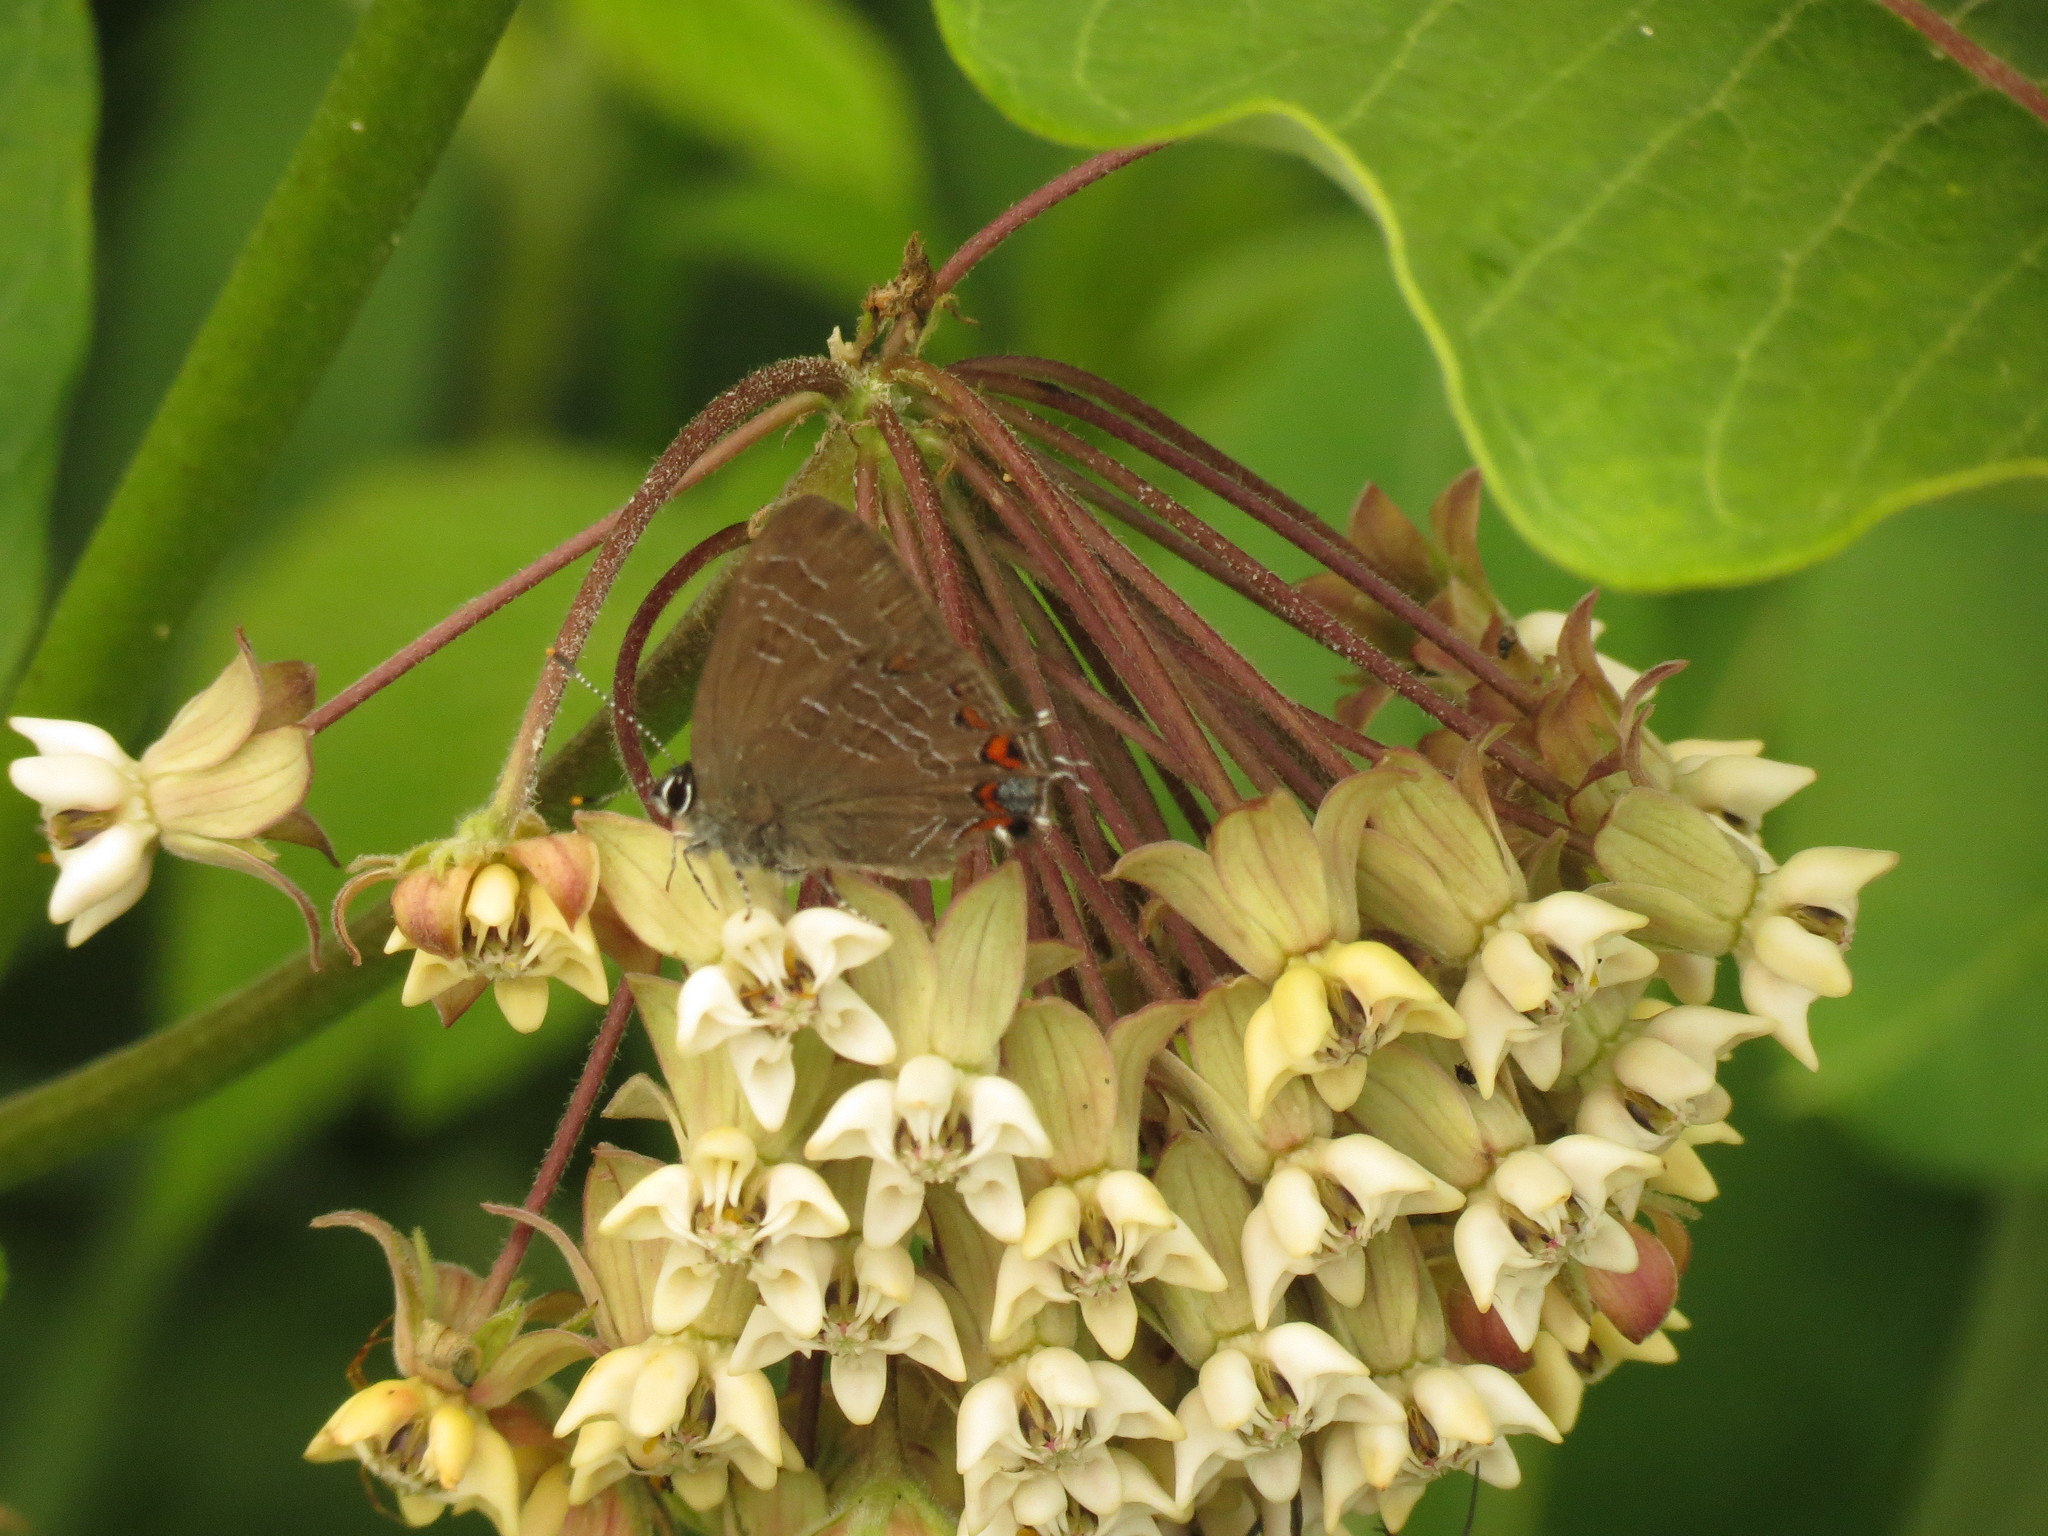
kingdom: Animalia
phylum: Arthropoda
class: Insecta
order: Lepidoptera
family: Lycaenidae
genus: Satyrium
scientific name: Satyrium liparops
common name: Striped hairstreak
